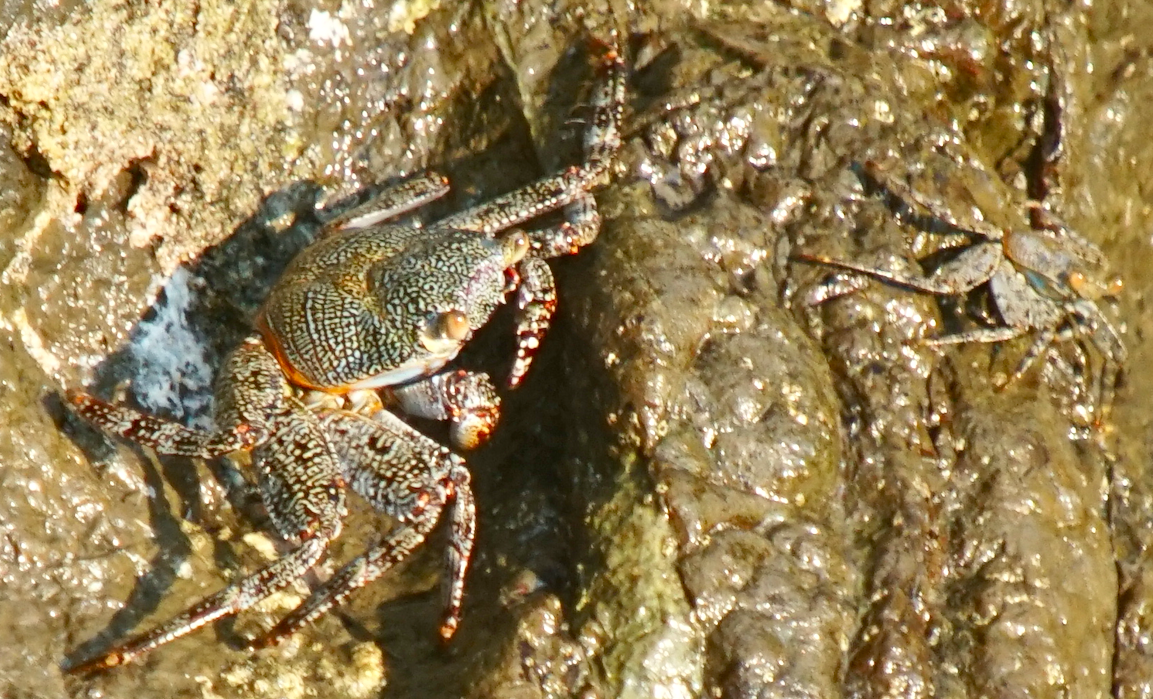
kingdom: Animalia
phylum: Arthropoda
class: Malacostraca
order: Decapoda
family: Grapsidae
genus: Grapsus
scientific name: Grapsus grapsus
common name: Sally lightfoot
